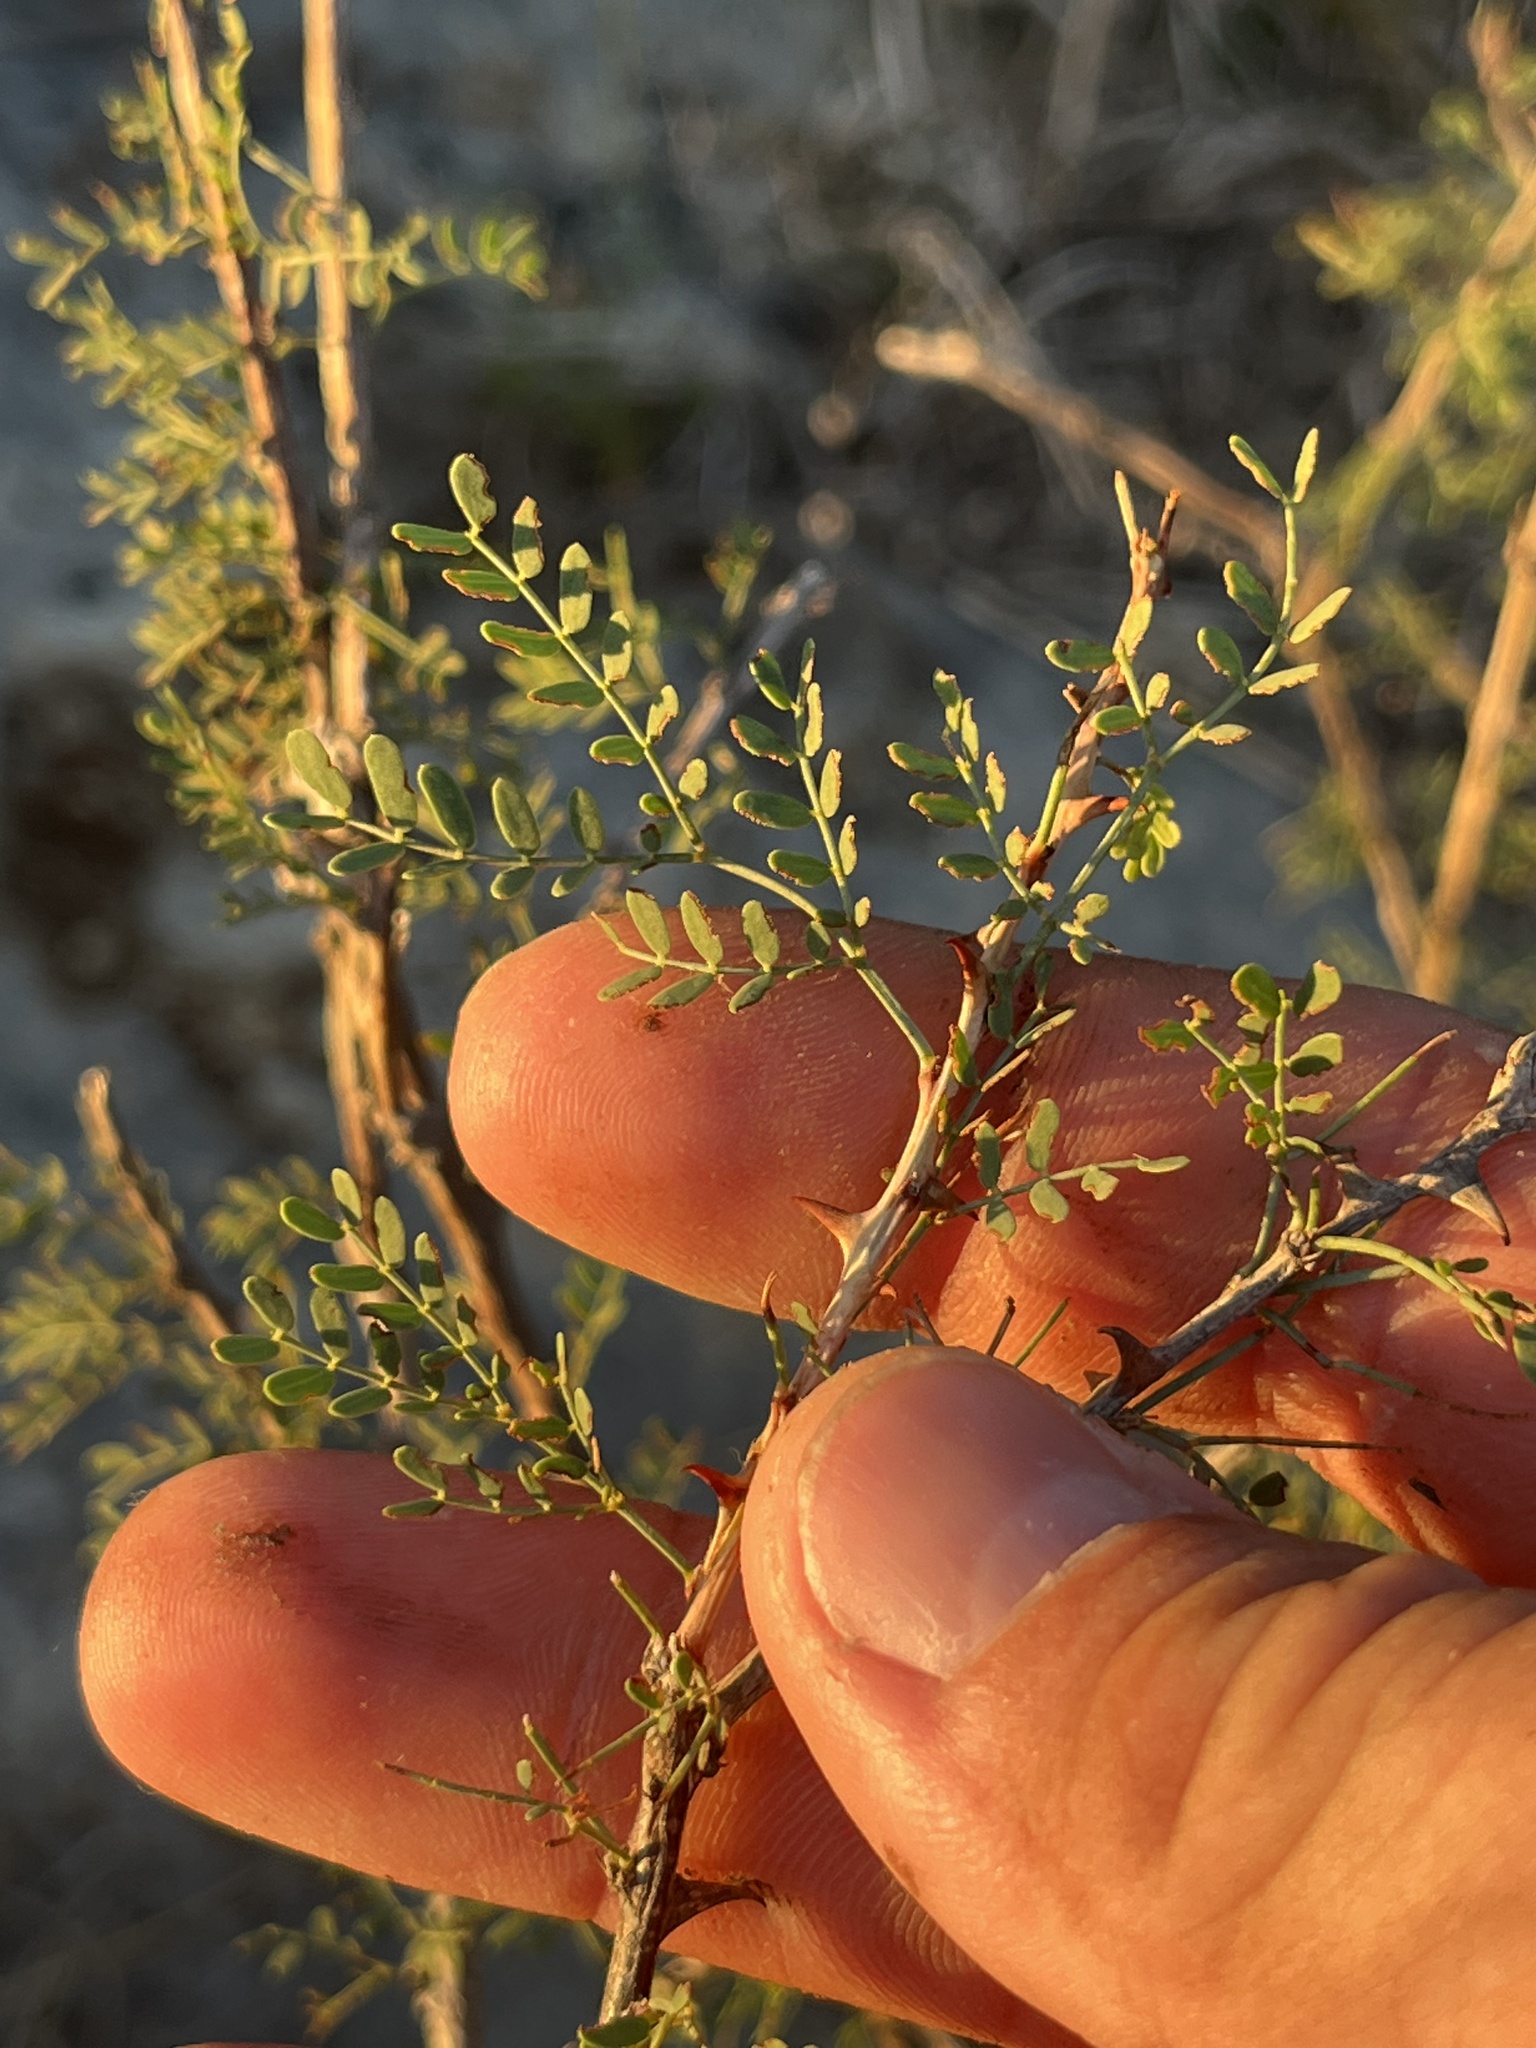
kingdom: Plantae
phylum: Tracheophyta
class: Magnoliopsida
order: Fabales
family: Fabaceae
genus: Mimosa
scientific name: Mimosa borealis
